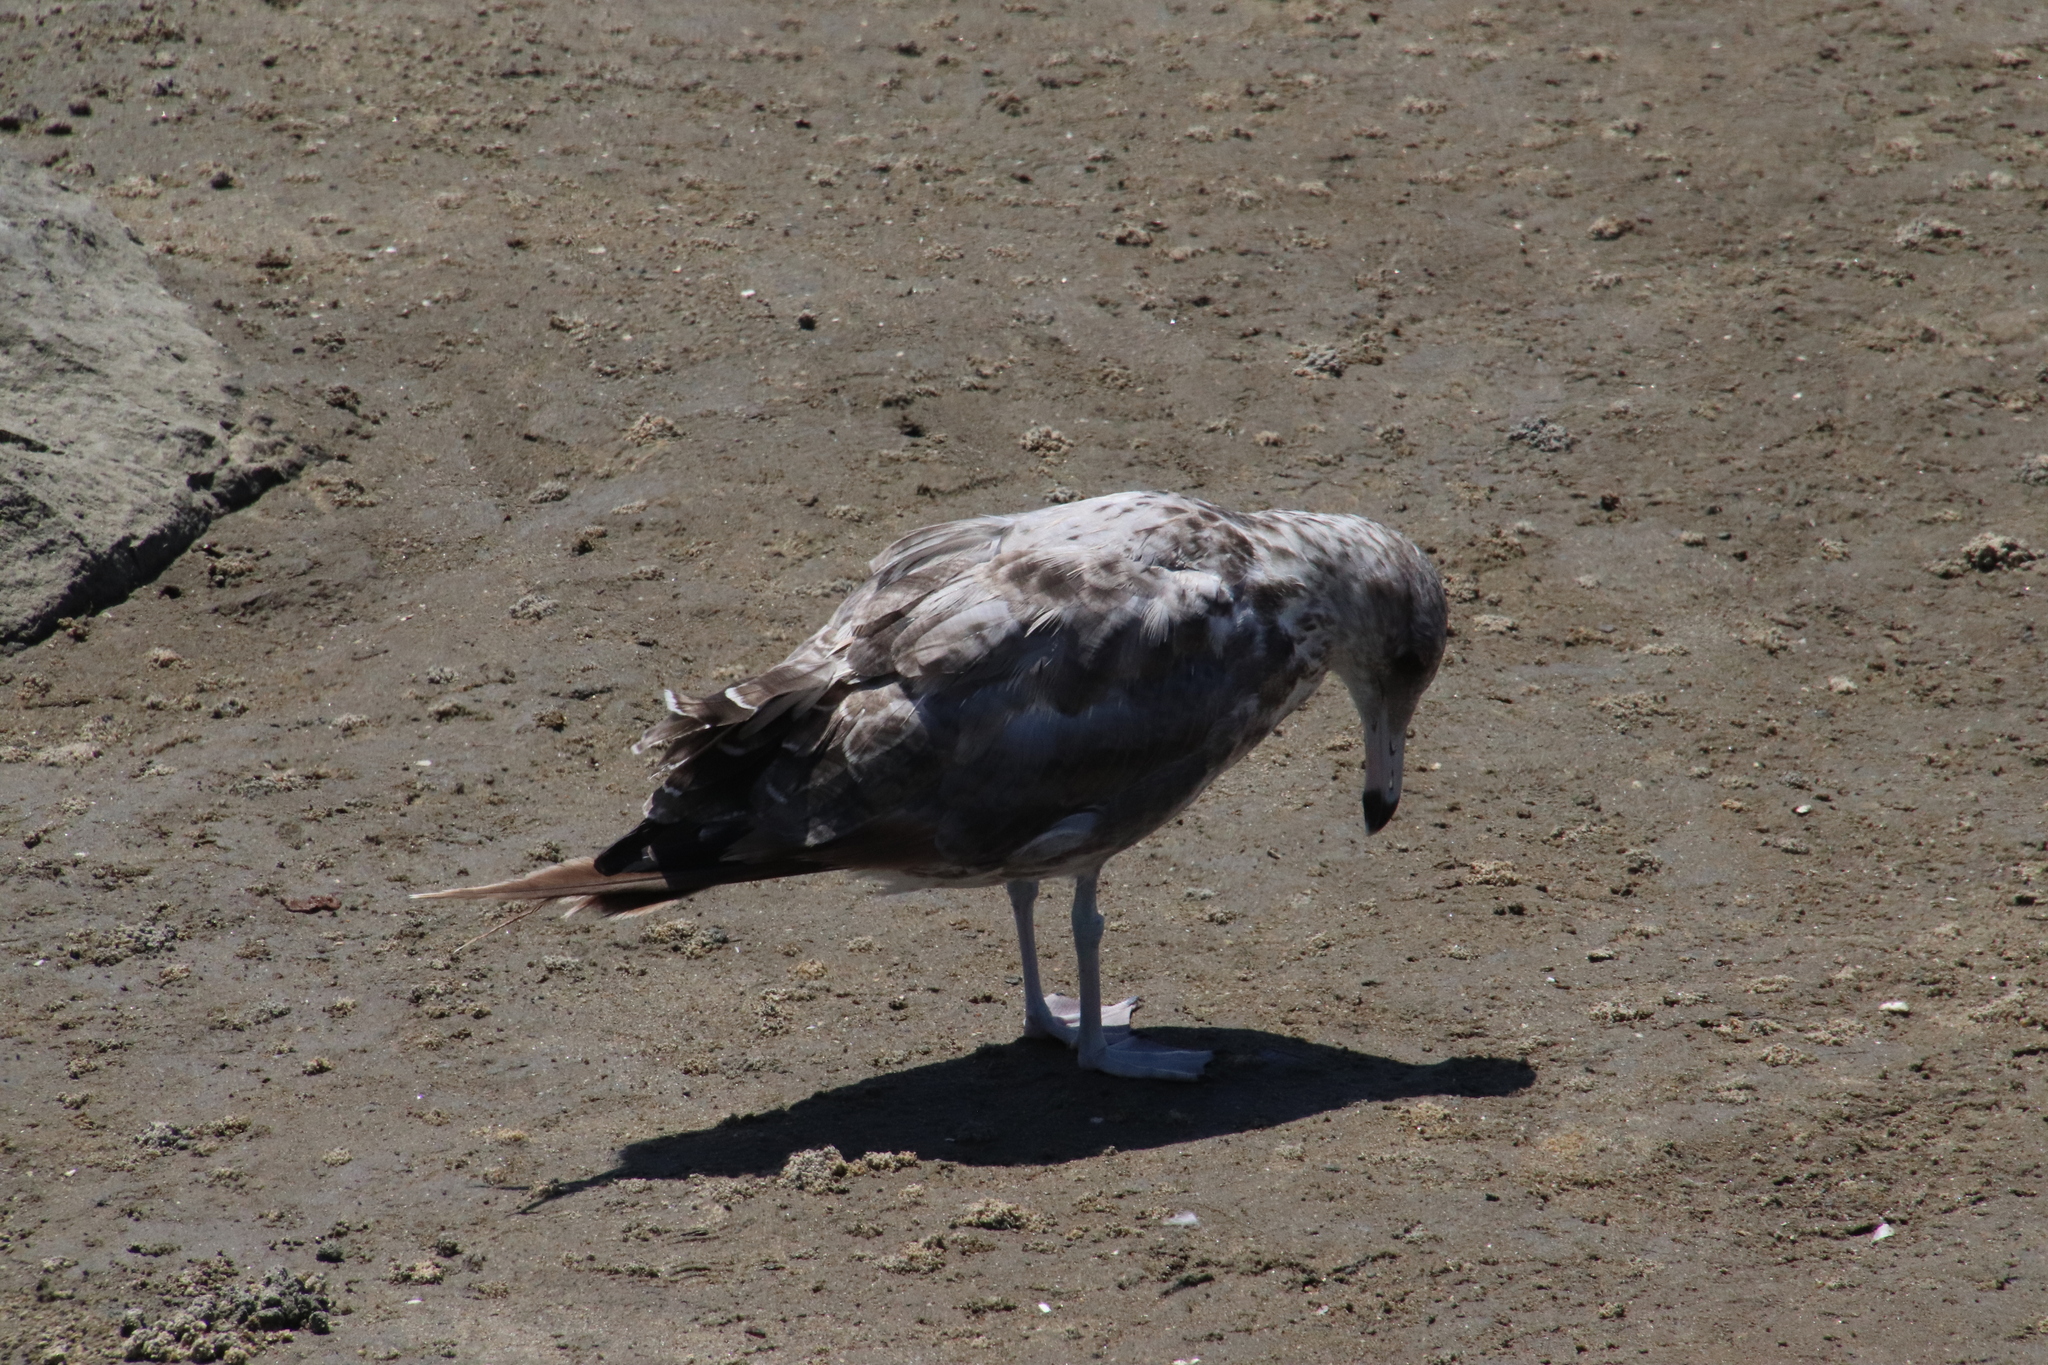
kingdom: Animalia
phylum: Chordata
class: Aves
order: Charadriiformes
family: Laridae
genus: Larus
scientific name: Larus californicus
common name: California gull
